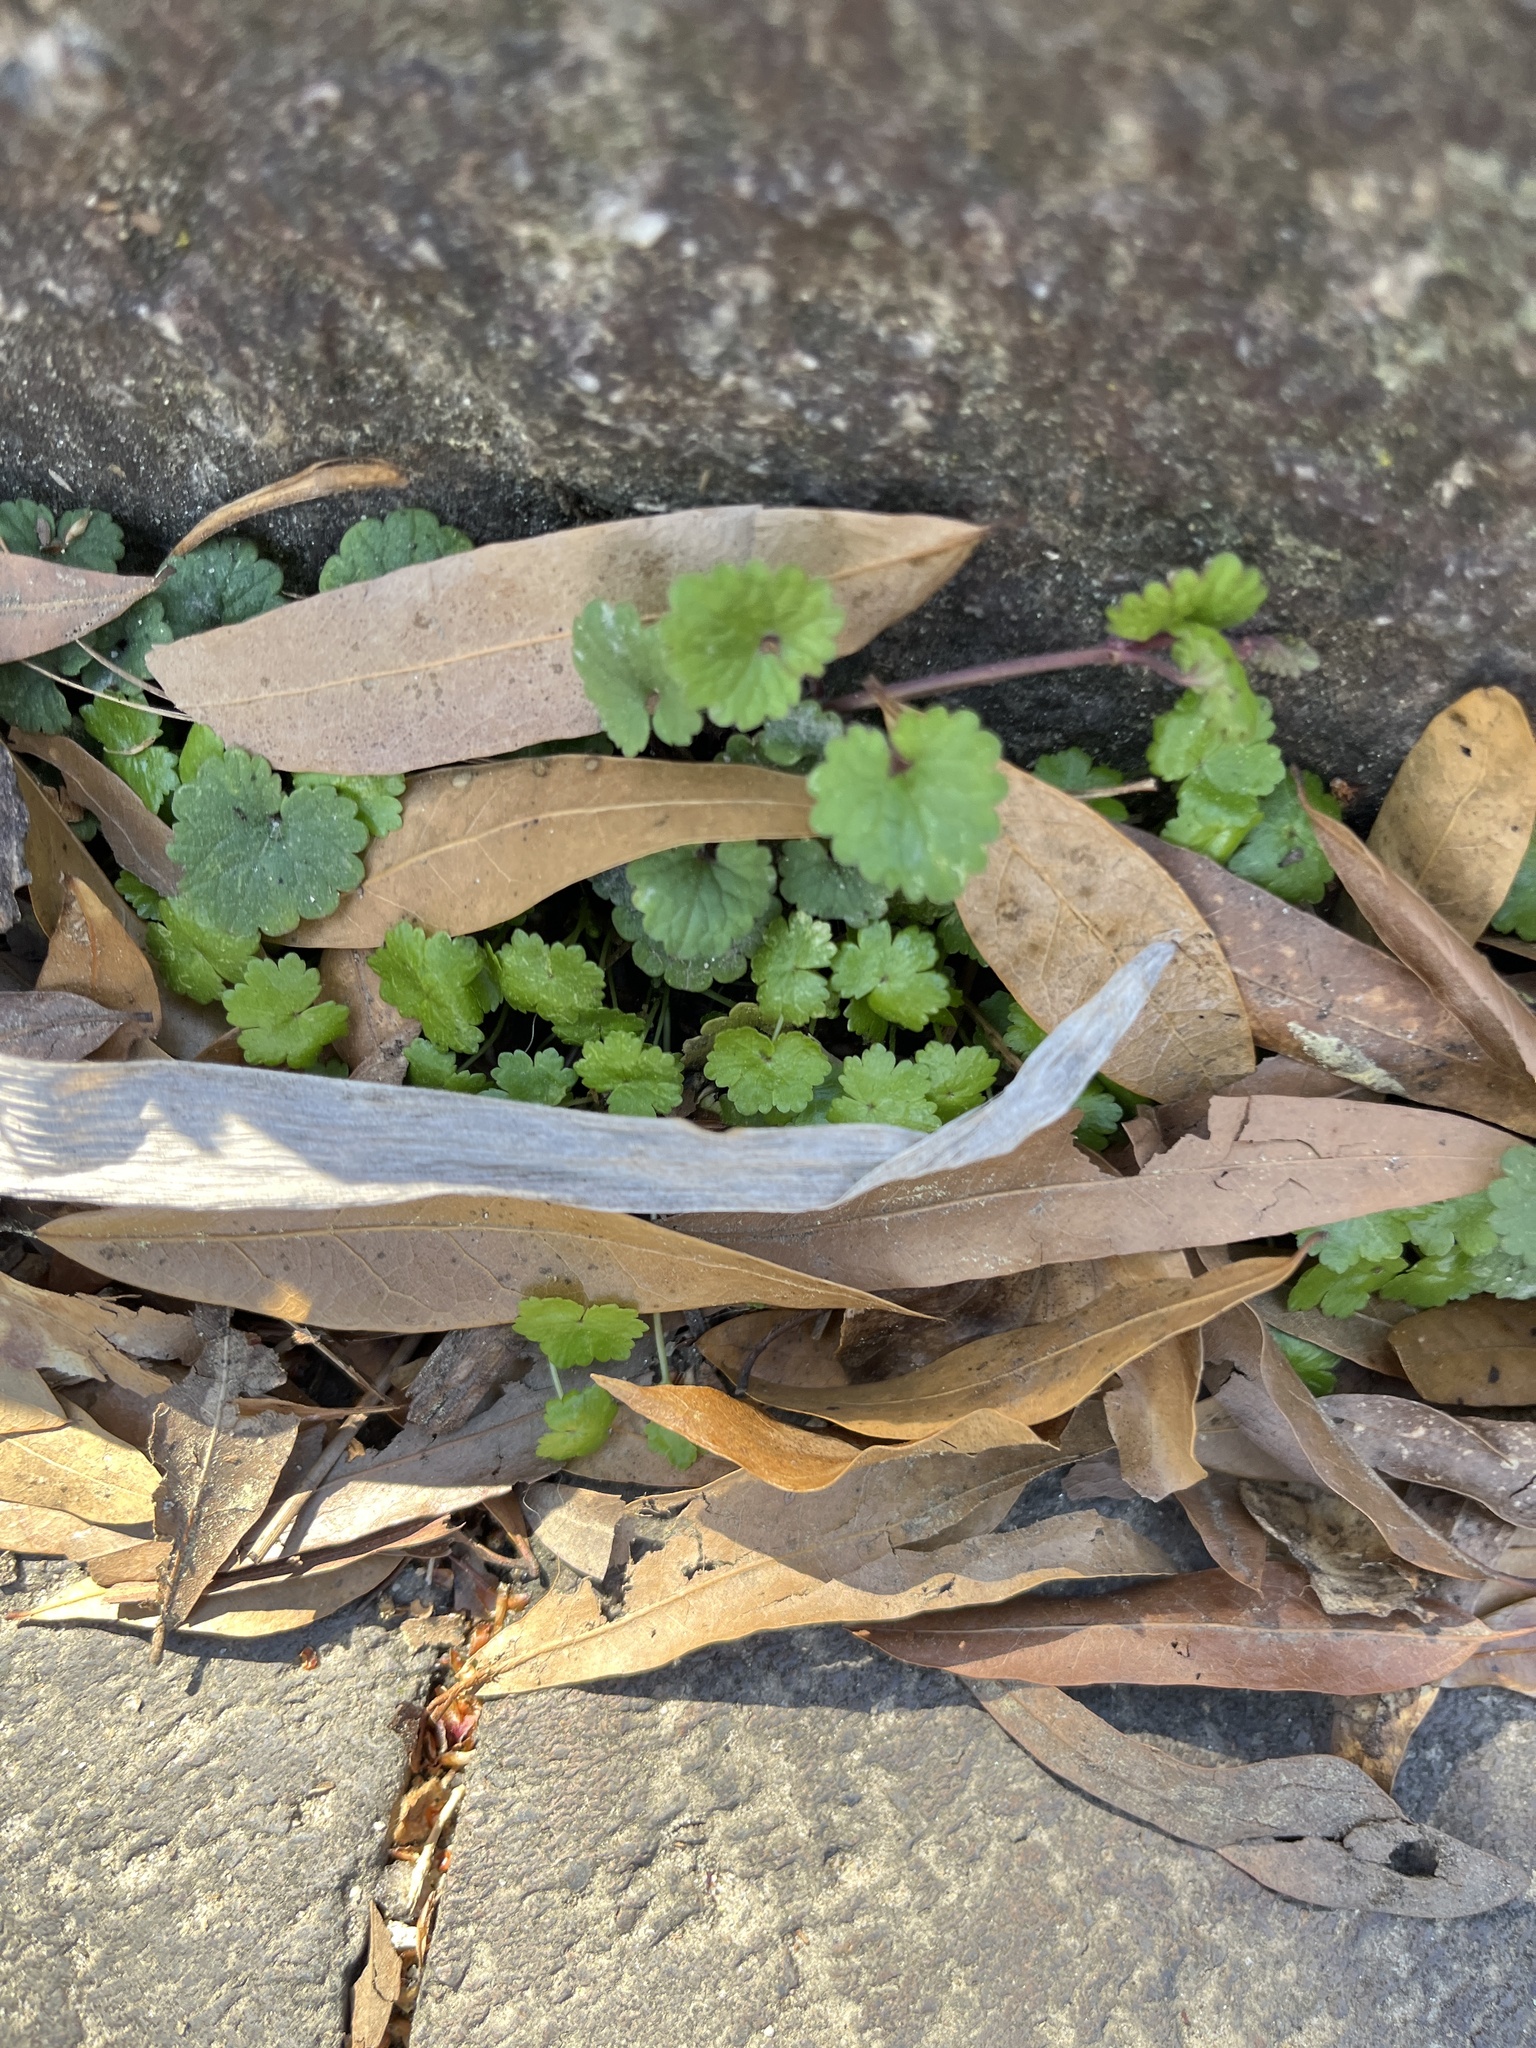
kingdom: Plantae
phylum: Tracheophyta
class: Magnoliopsida
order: Lamiales
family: Lamiaceae
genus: Glechoma
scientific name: Glechoma hederacea
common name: Ground ivy
